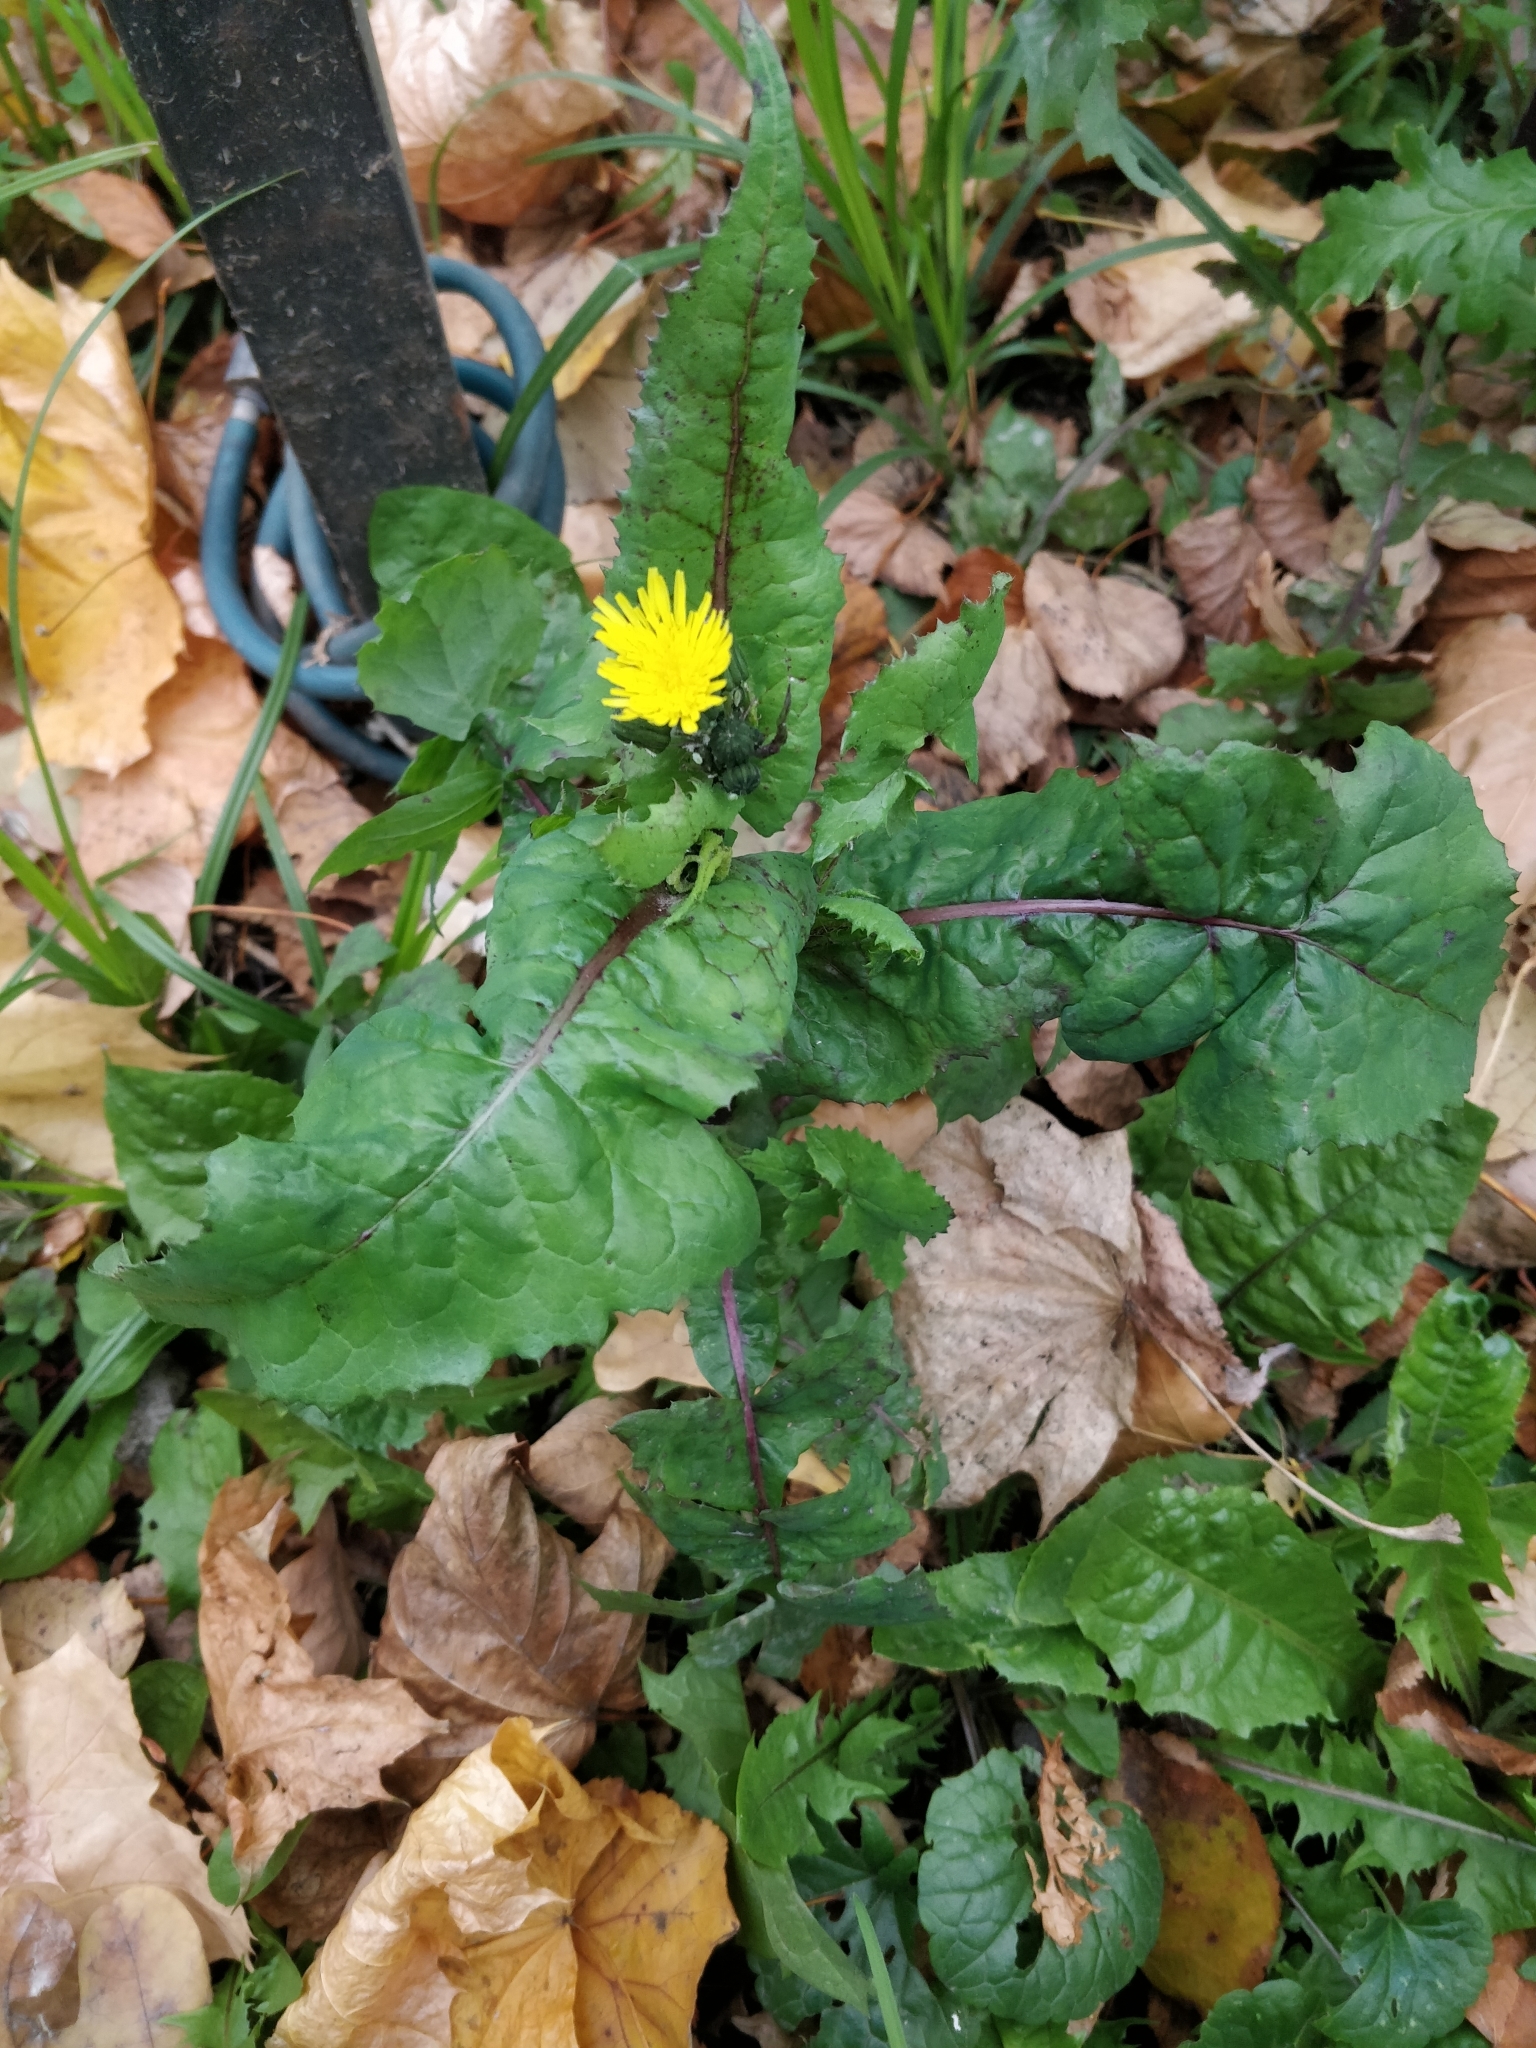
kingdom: Plantae
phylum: Tracheophyta
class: Magnoliopsida
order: Asterales
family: Asteraceae
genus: Sonchus
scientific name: Sonchus oleraceus
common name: Common sowthistle
